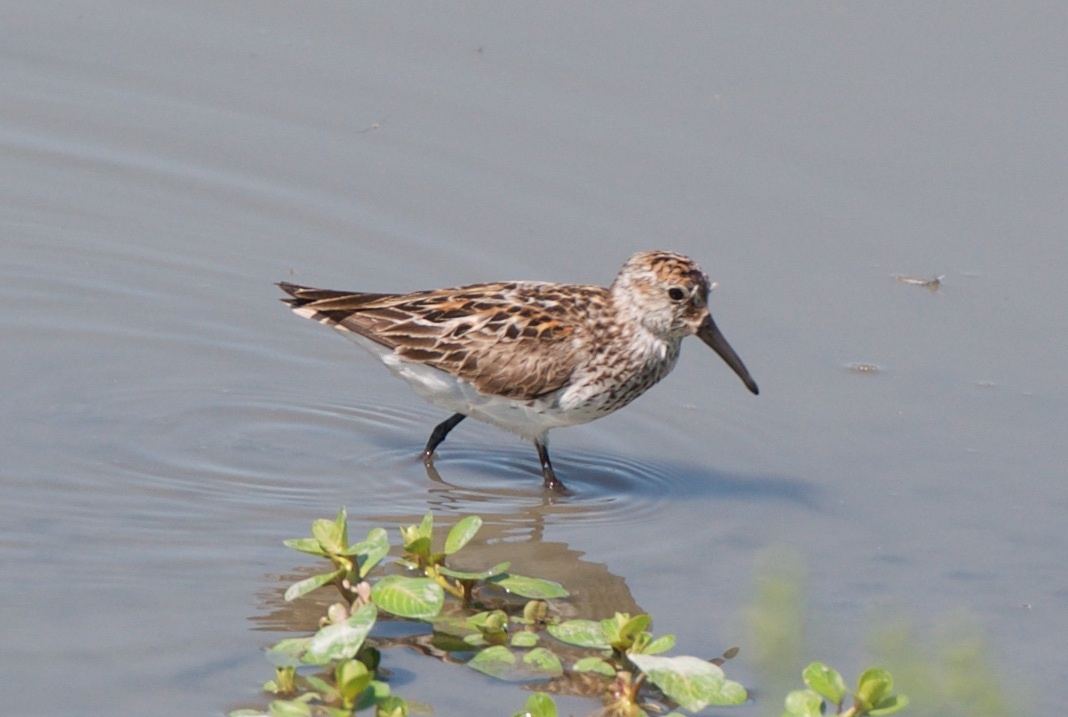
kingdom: Animalia
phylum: Chordata
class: Aves
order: Charadriiformes
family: Scolopacidae
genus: Calidris
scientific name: Calidris mauri
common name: Western sandpiper
